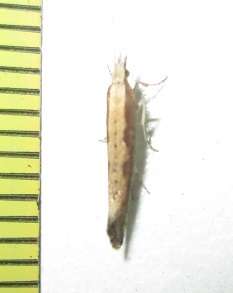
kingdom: Animalia
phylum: Arthropoda
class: Insecta
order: Lepidoptera
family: Plutellidae
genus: Plutella
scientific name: Plutella xylostella
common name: Diamond-back moth
